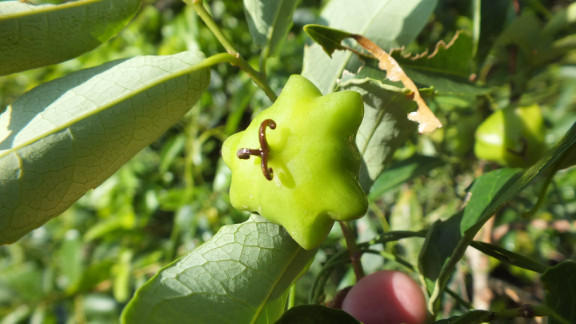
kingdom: Plantae
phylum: Tracheophyta
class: Magnoliopsida
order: Malpighiales
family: Euphorbiaceae
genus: Sclerocroton
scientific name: Sclerocroton integerrimus
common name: Duiker berry
